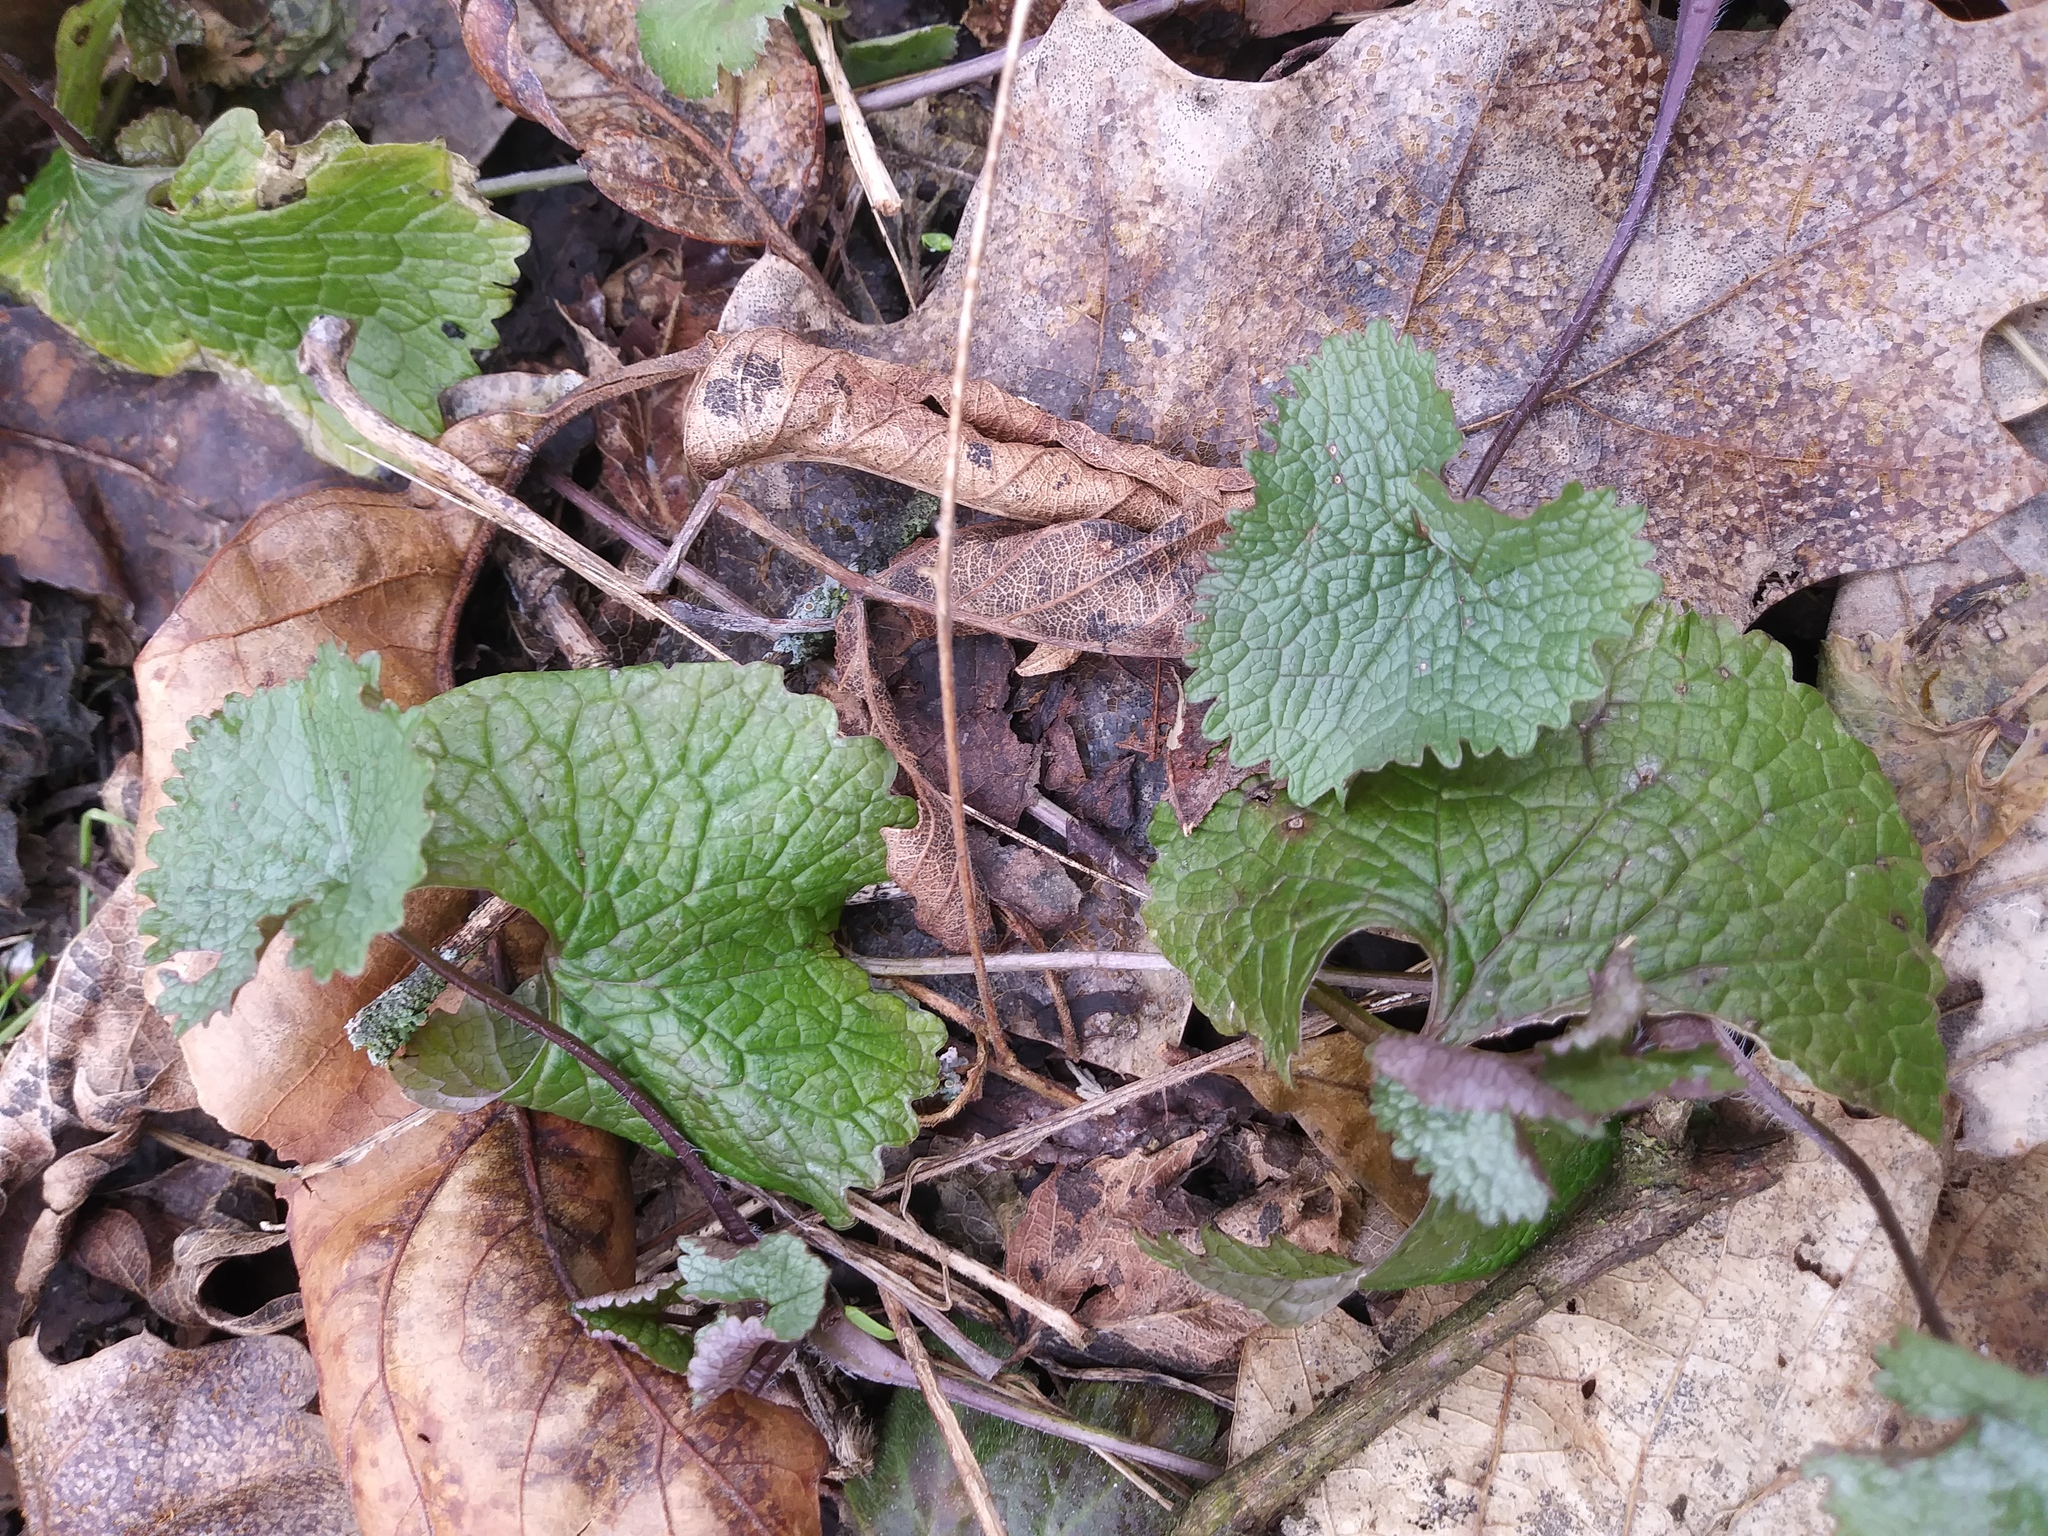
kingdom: Plantae
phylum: Tracheophyta
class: Magnoliopsida
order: Brassicales
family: Brassicaceae
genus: Alliaria
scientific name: Alliaria petiolata
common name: Garlic mustard
